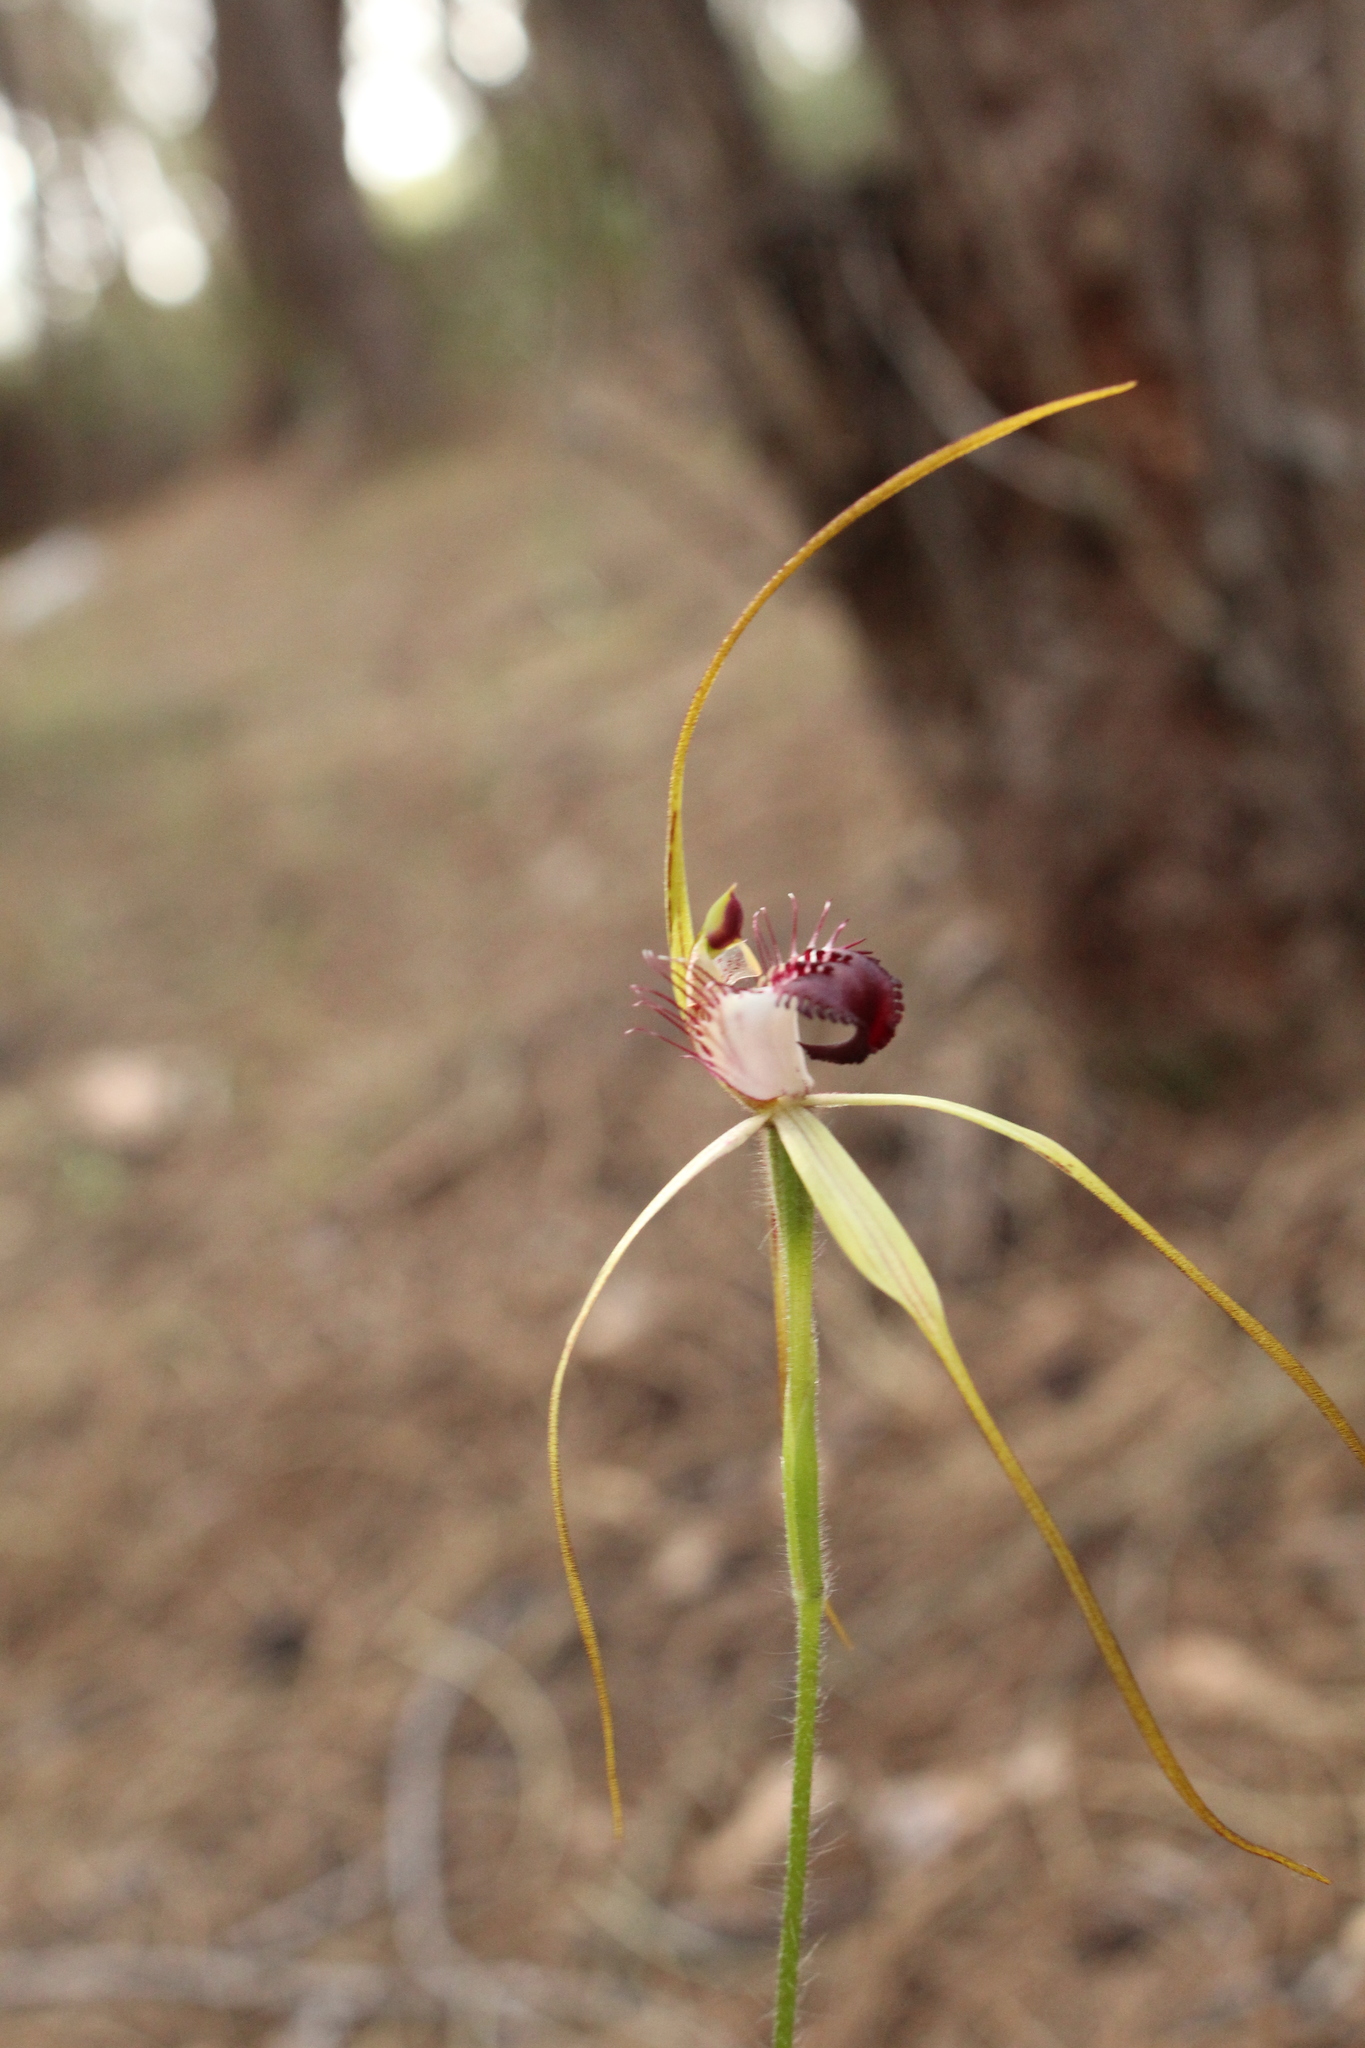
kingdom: Plantae
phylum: Tracheophyta
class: Liliopsida
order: Asparagales
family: Orchidaceae
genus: Caladenia
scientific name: Caladenia heberleana
